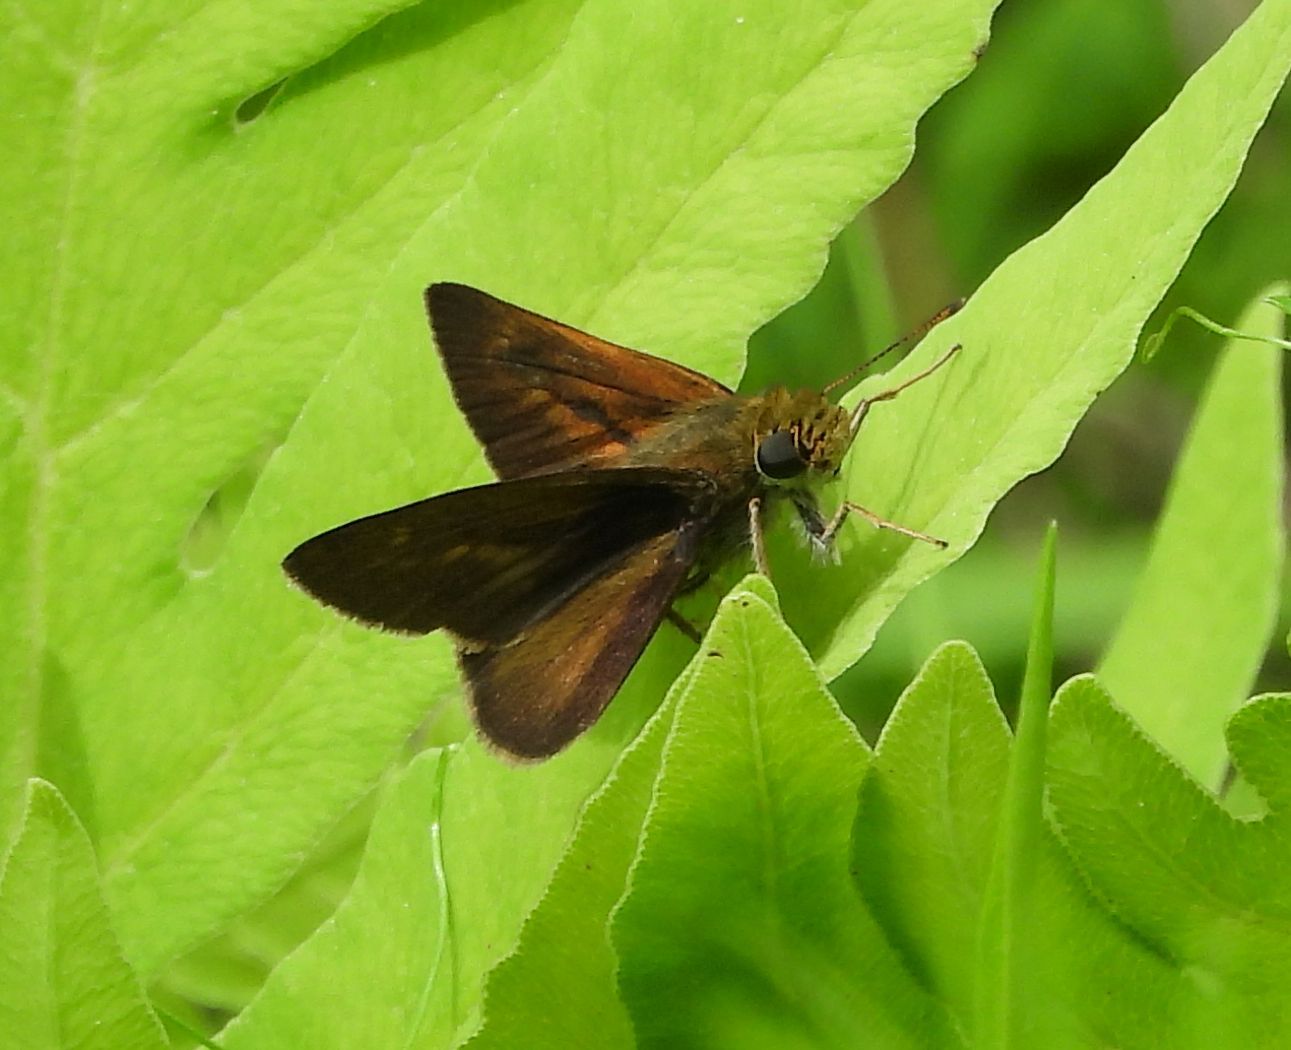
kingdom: Animalia
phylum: Arthropoda
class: Insecta
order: Lepidoptera
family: Hesperiidae
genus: Euphyes
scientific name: Euphyes vestris
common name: Dun skipper
